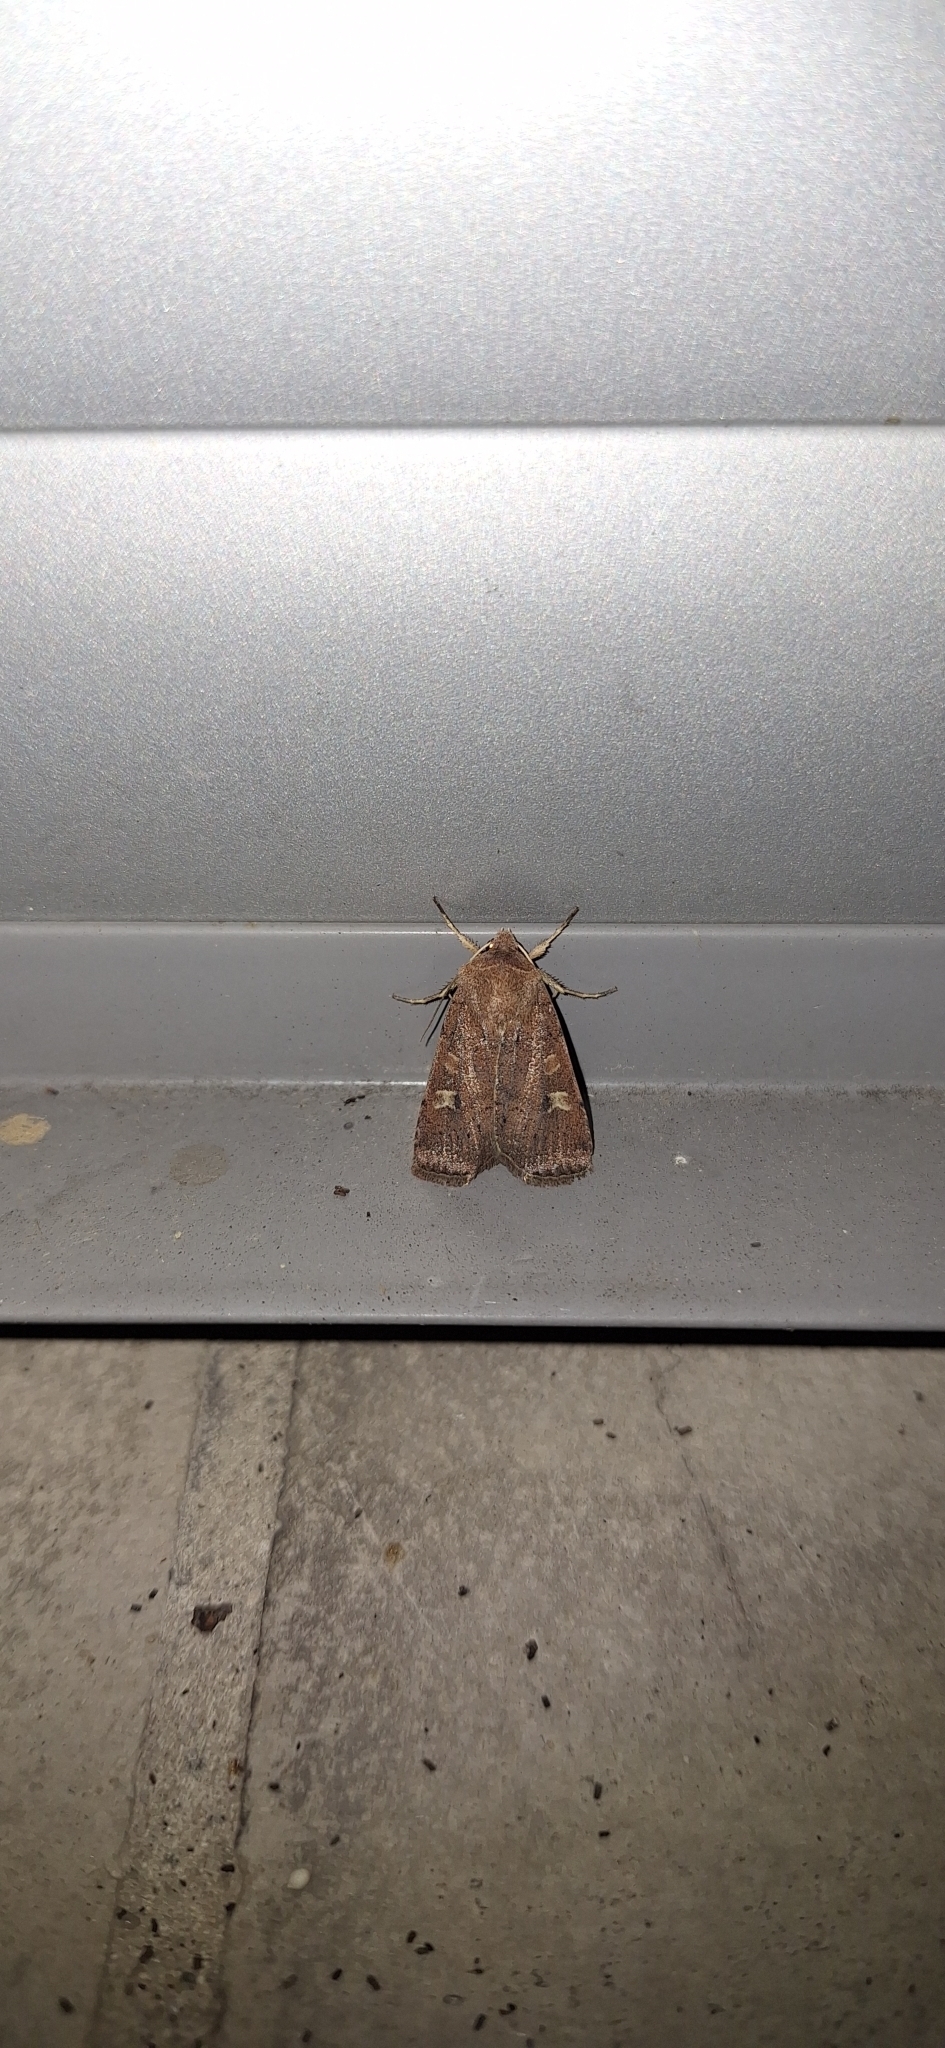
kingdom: Animalia
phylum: Arthropoda
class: Insecta
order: Lepidoptera
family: Noctuidae
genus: Xestia
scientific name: Xestia xanthographa
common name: Square-spot rustic
